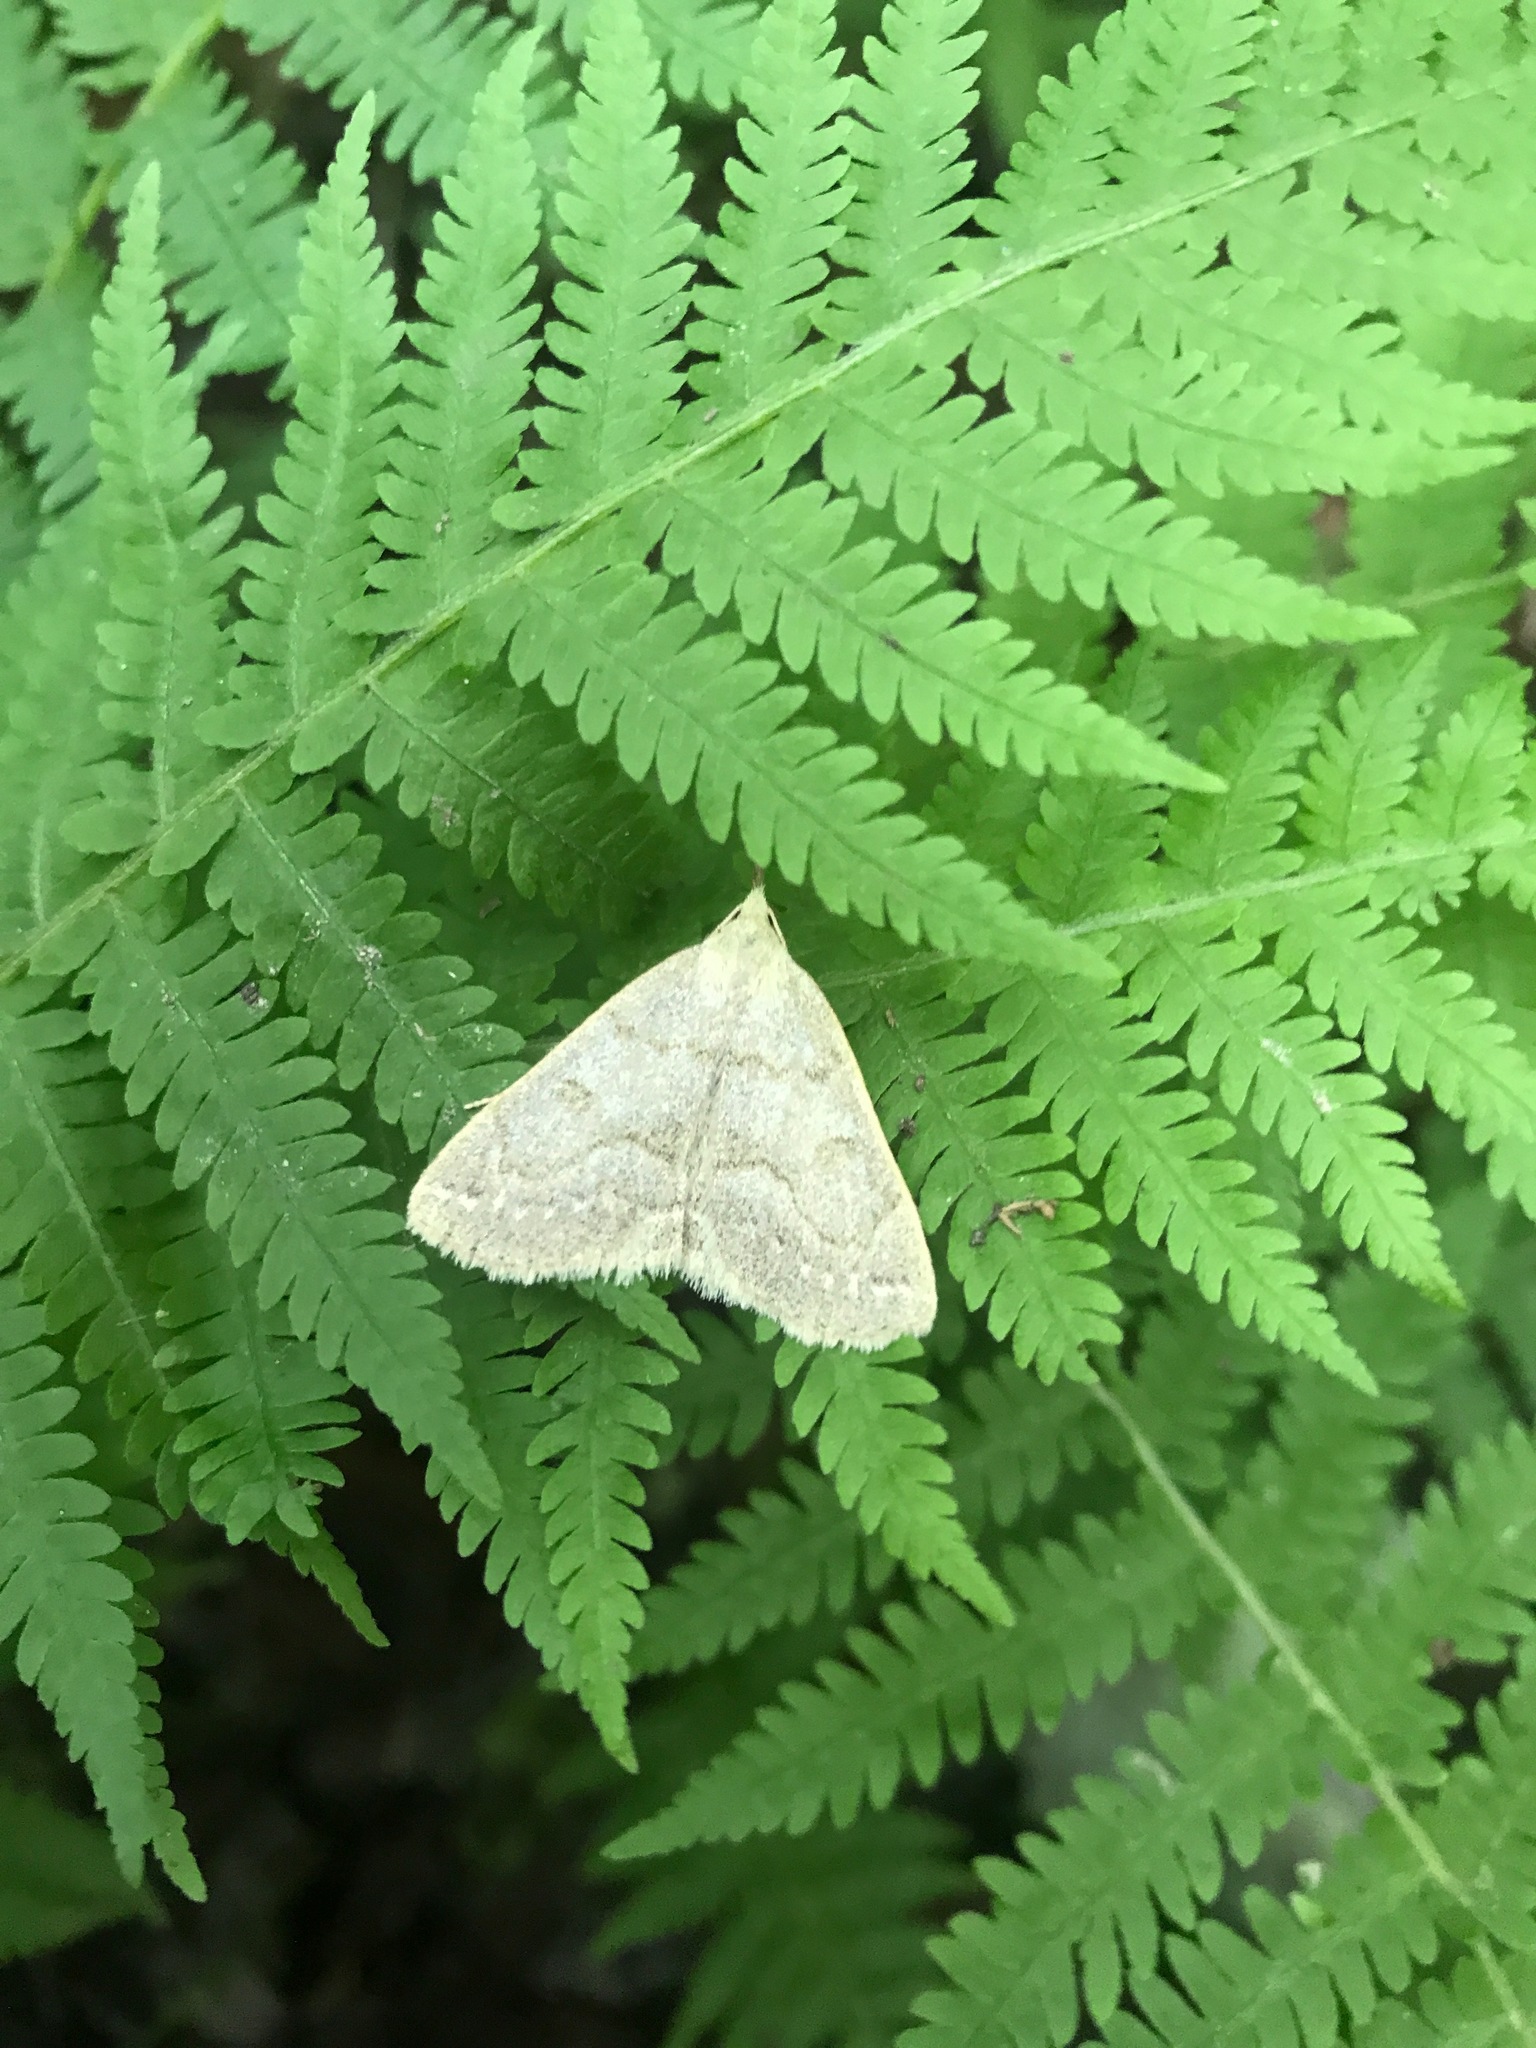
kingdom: Animalia
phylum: Arthropoda
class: Insecta
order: Lepidoptera
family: Erebidae
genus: Macrochilo
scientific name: Macrochilo morbidalis
